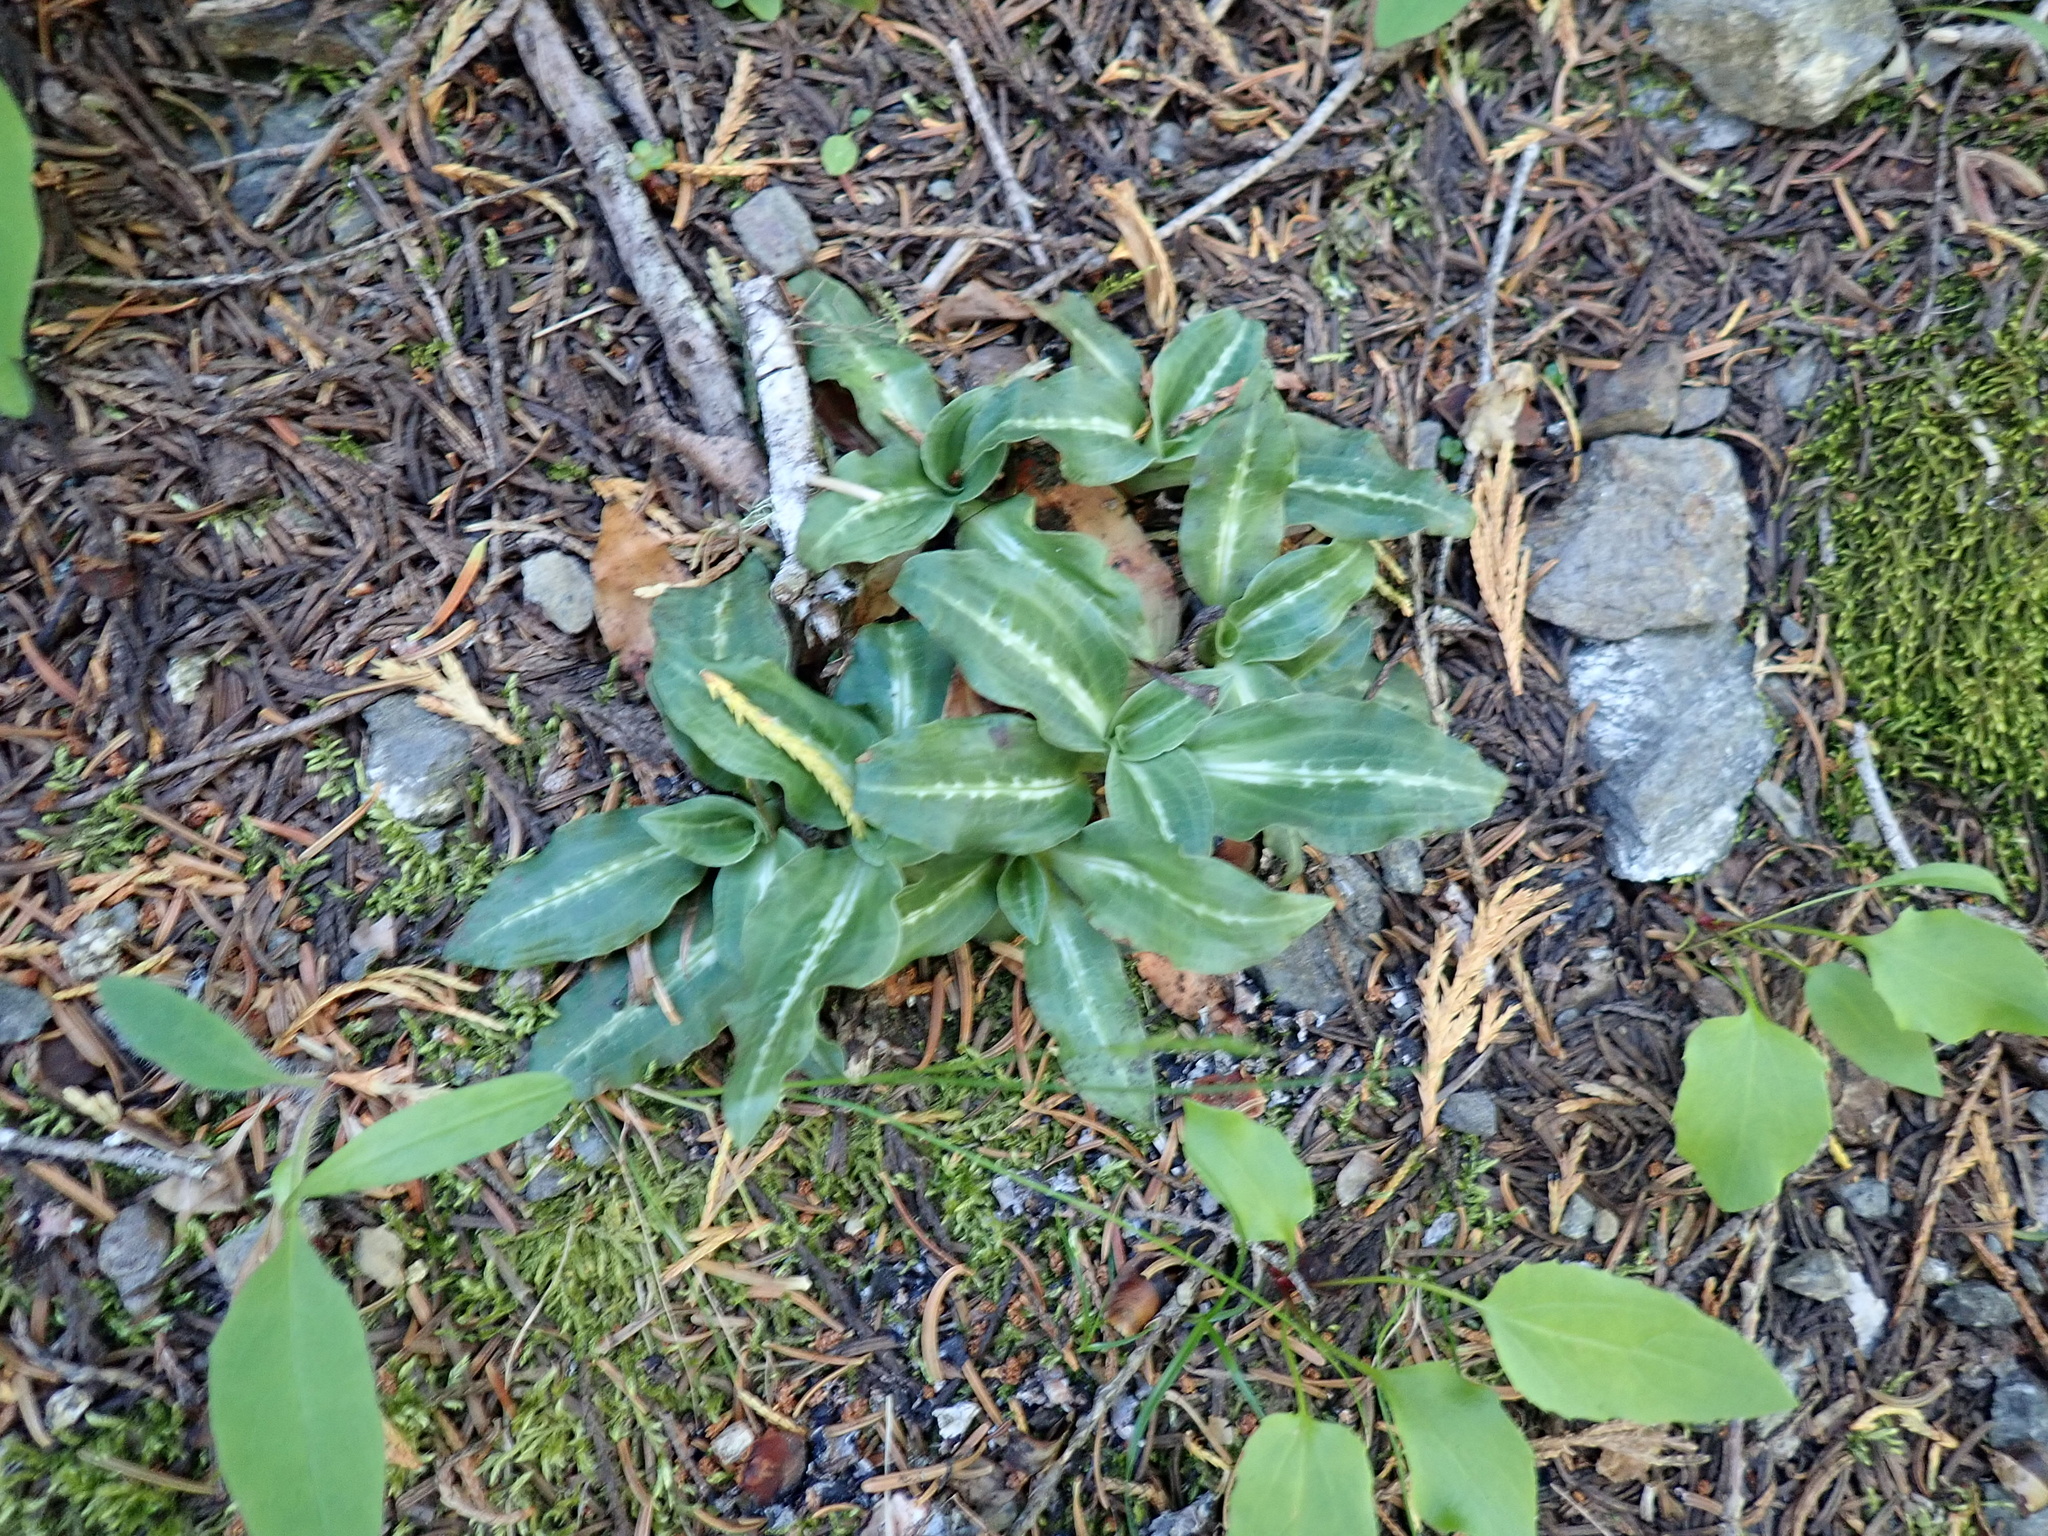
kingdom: Plantae
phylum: Tracheophyta
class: Liliopsida
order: Asparagales
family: Orchidaceae
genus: Goodyera
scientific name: Goodyera oblongifolia
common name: Giant rattlesnake-plantain
